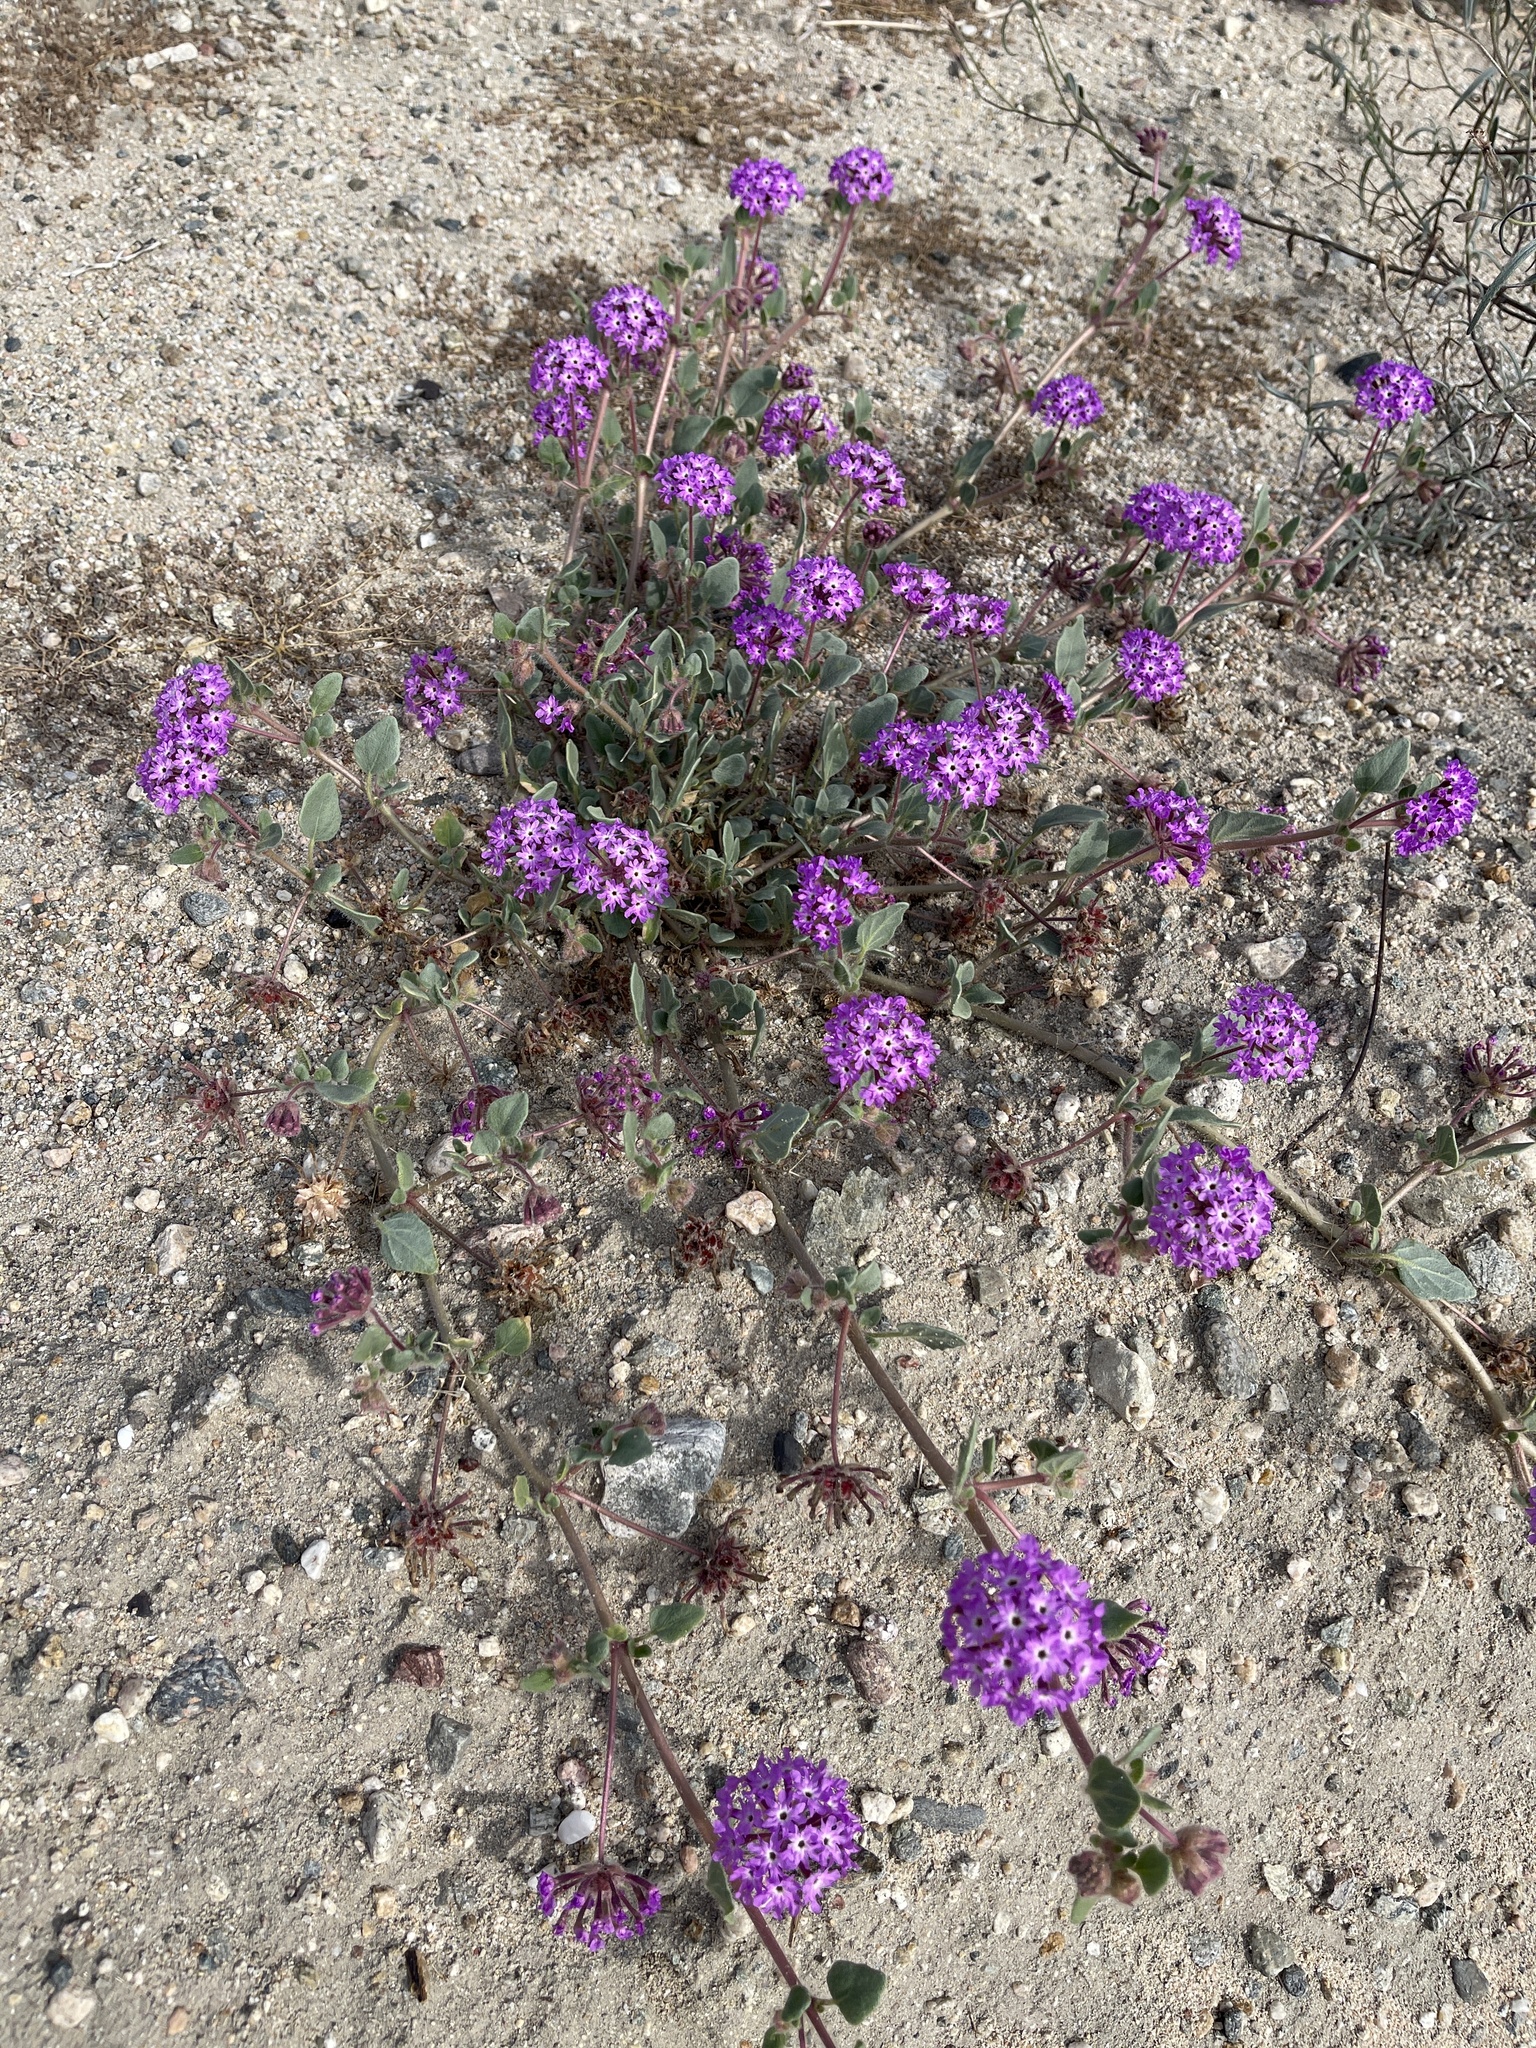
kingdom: Plantae
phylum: Tracheophyta
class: Magnoliopsida
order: Caryophyllales
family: Nyctaginaceae
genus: Abronia
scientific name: Abronia villosa
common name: Desert sand-verbena
